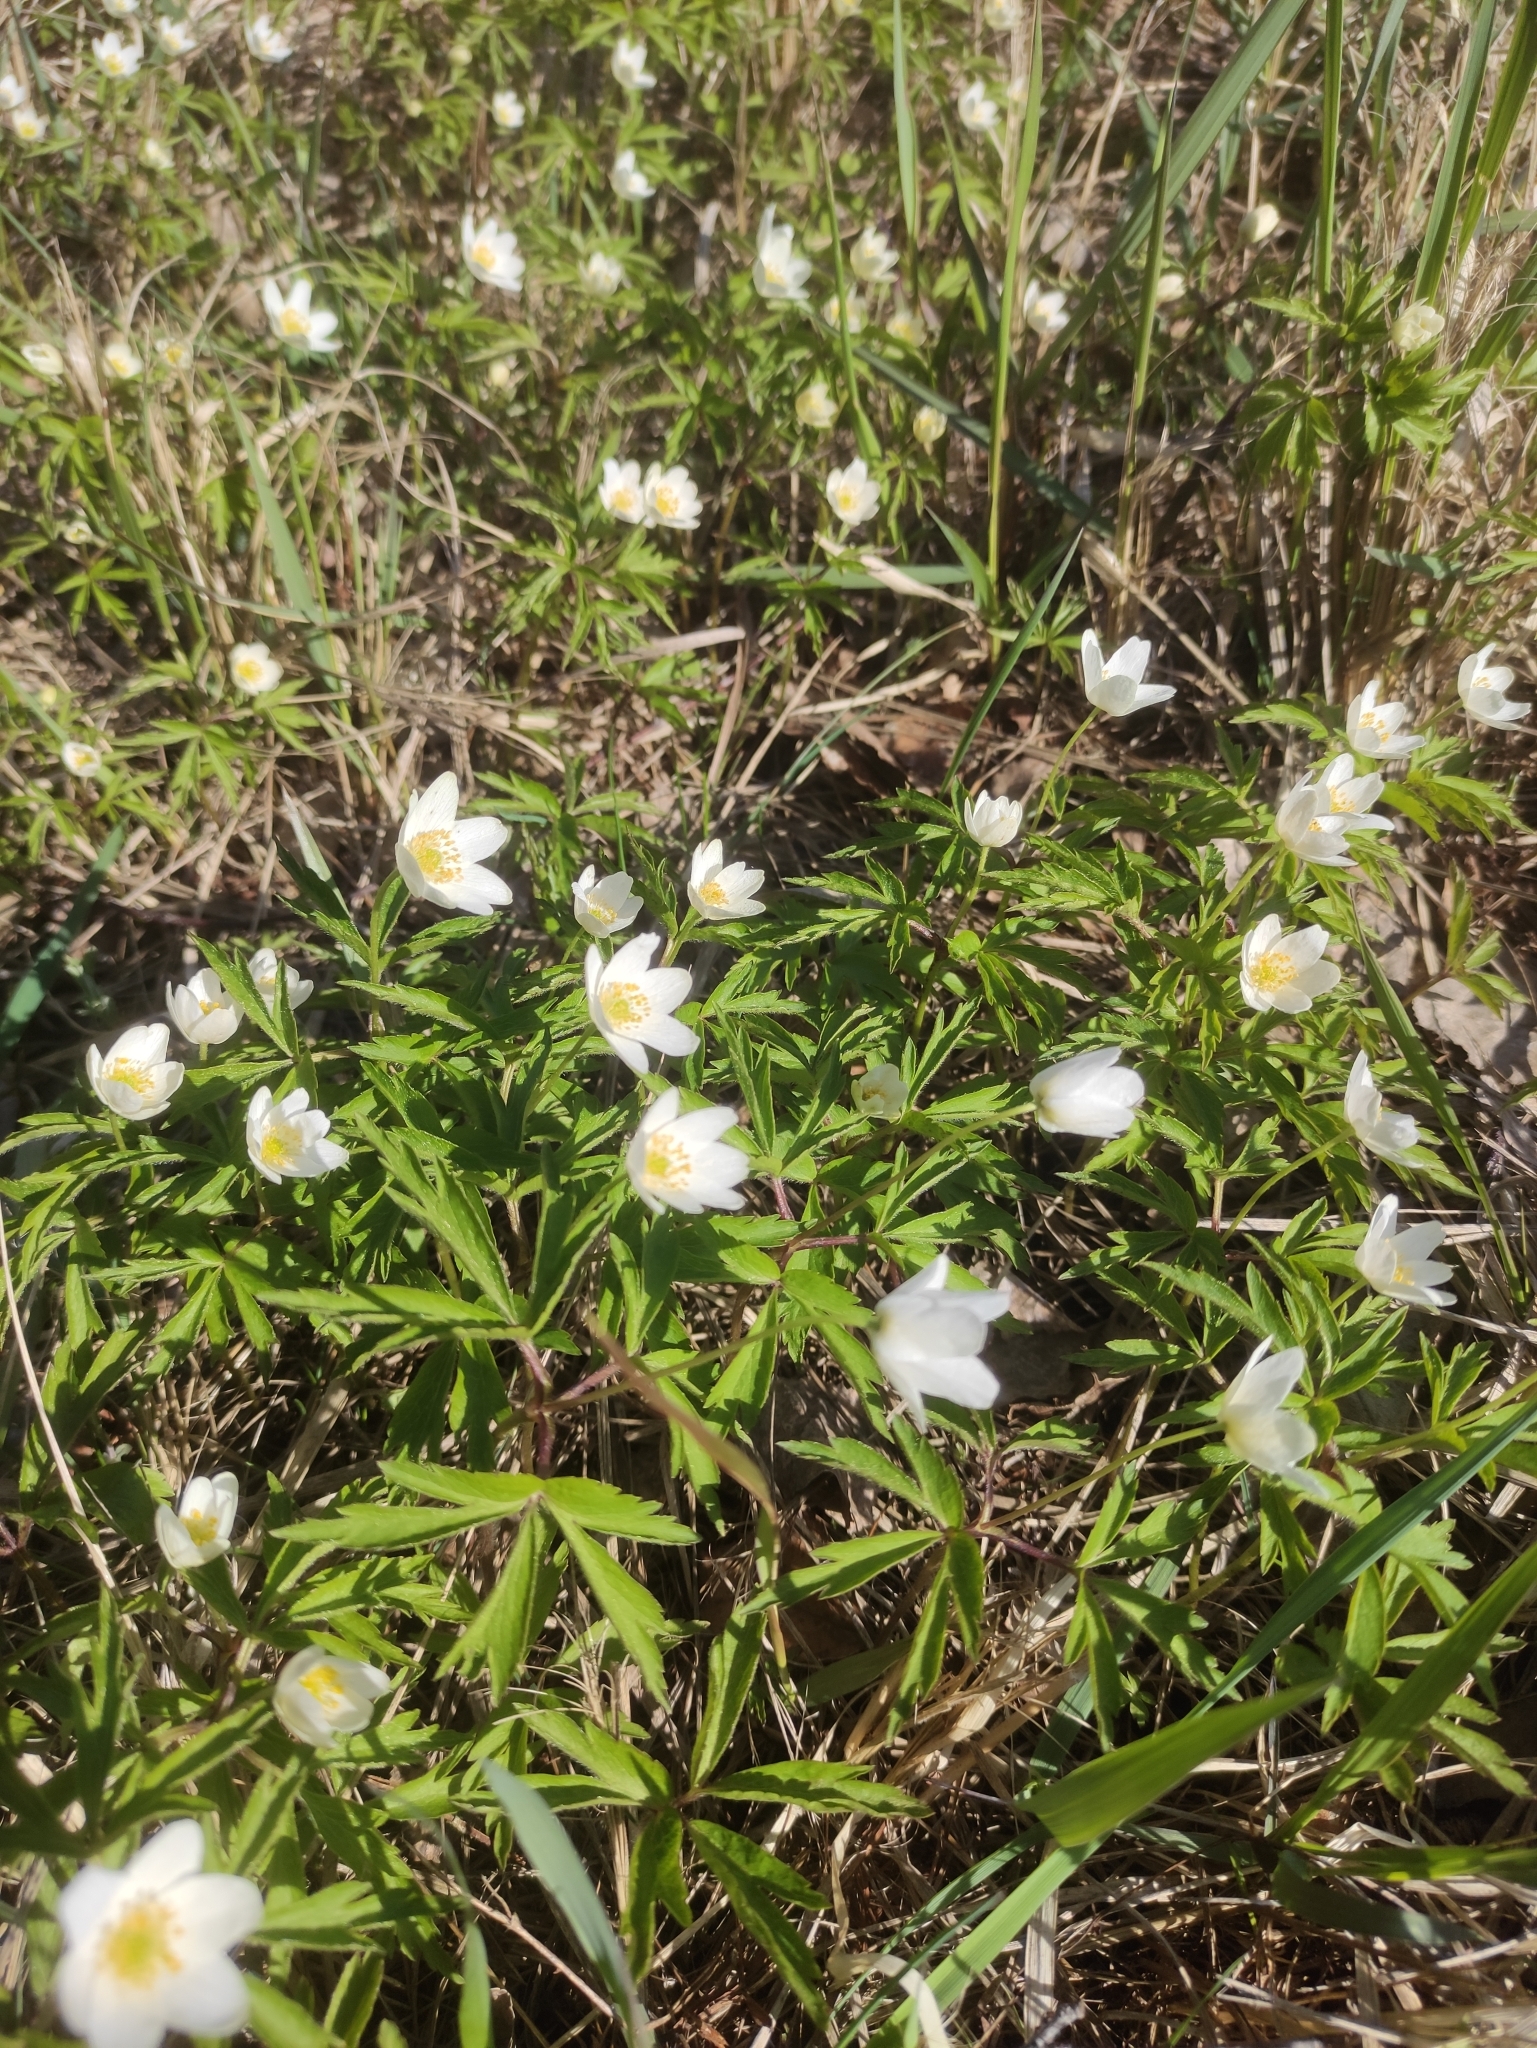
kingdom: Plantae
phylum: Tracheophyta
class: Magnoliopsida
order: Ranunculales
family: Ranunculaceae
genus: Anemone
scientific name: Anemone nemorosa
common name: Wood anemone
